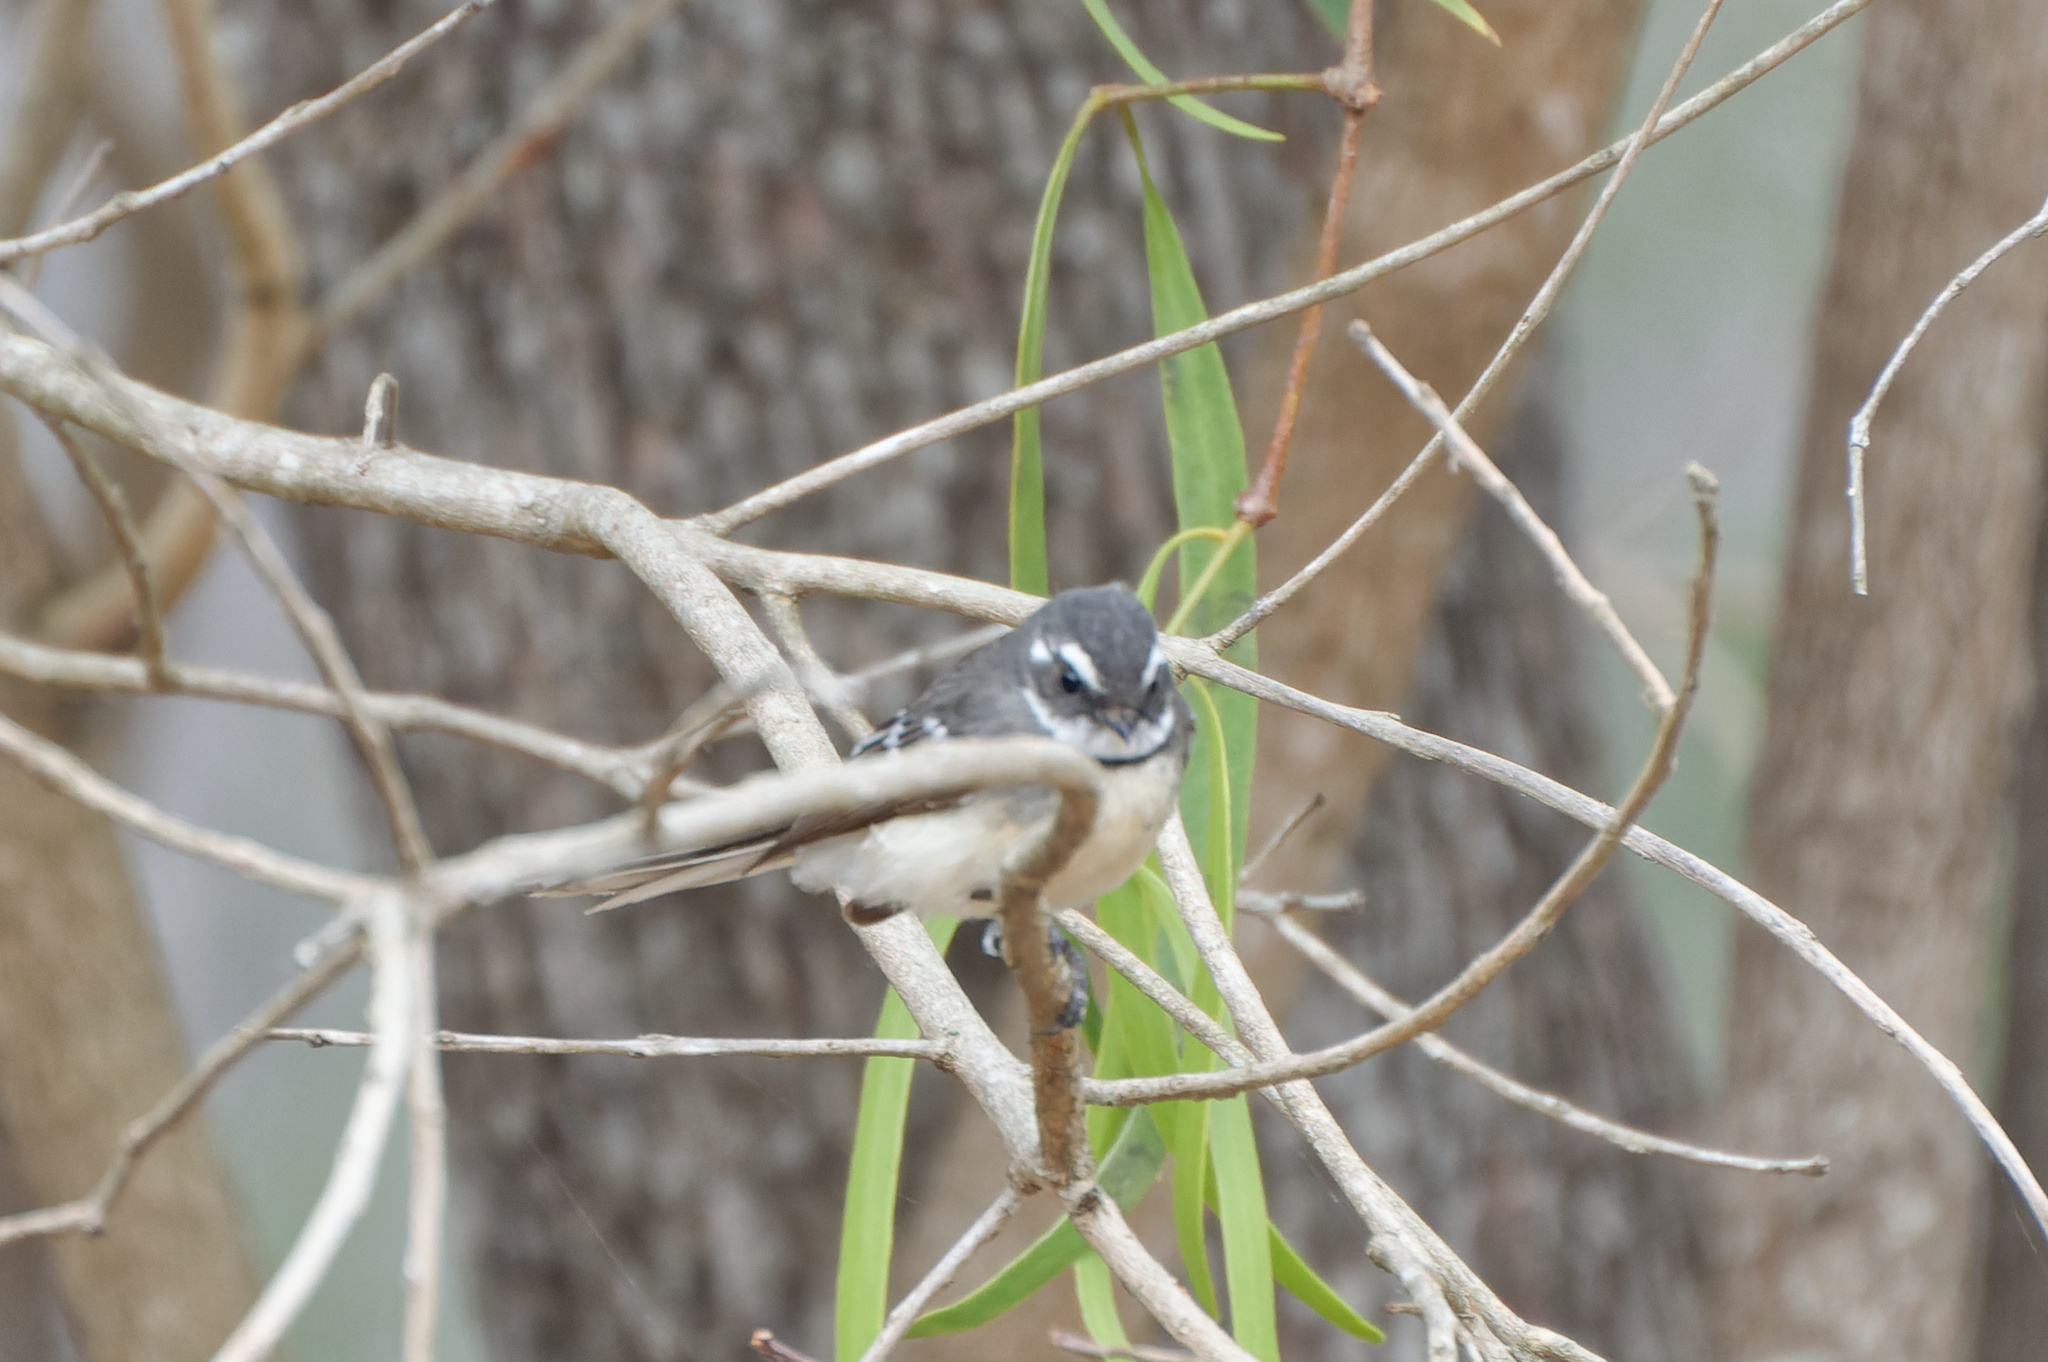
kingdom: Animalia
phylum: Chordata
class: Aves
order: Passeriformes
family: Rhipiduridae
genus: Rhipidura
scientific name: Rhipidura albiscapa
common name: Grey fantail
